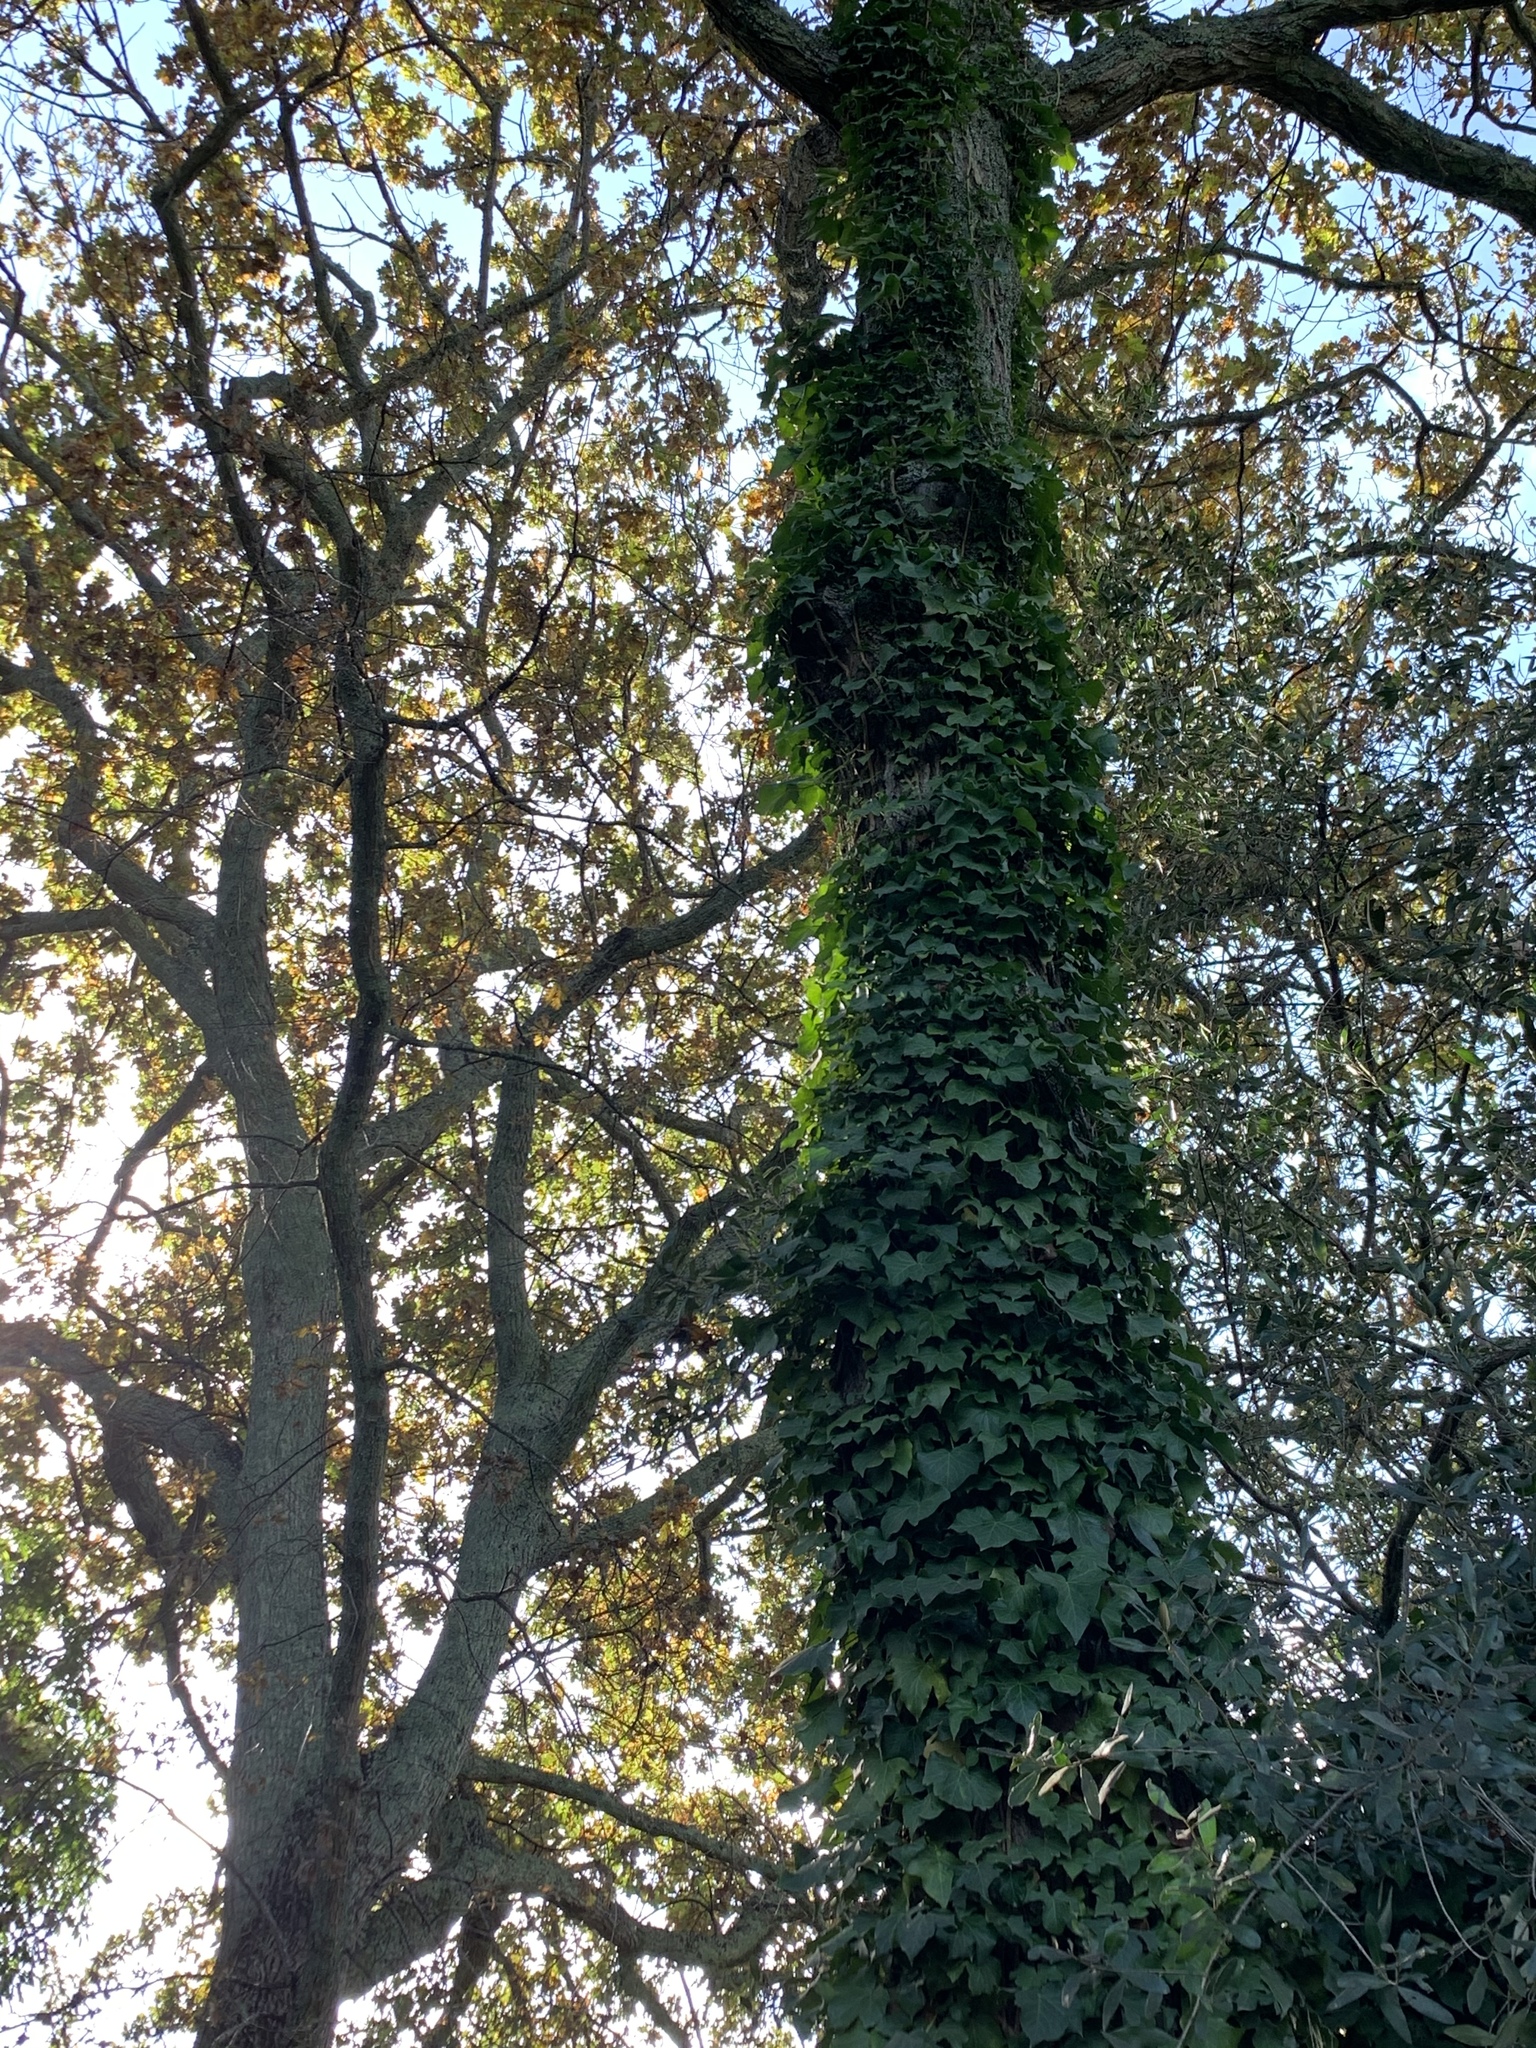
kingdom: Plantae
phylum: Tracheophyta
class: Magnoliopsida
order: Apiales
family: Araliaceae
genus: Hedera
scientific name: Hedera helix
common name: Ivy
